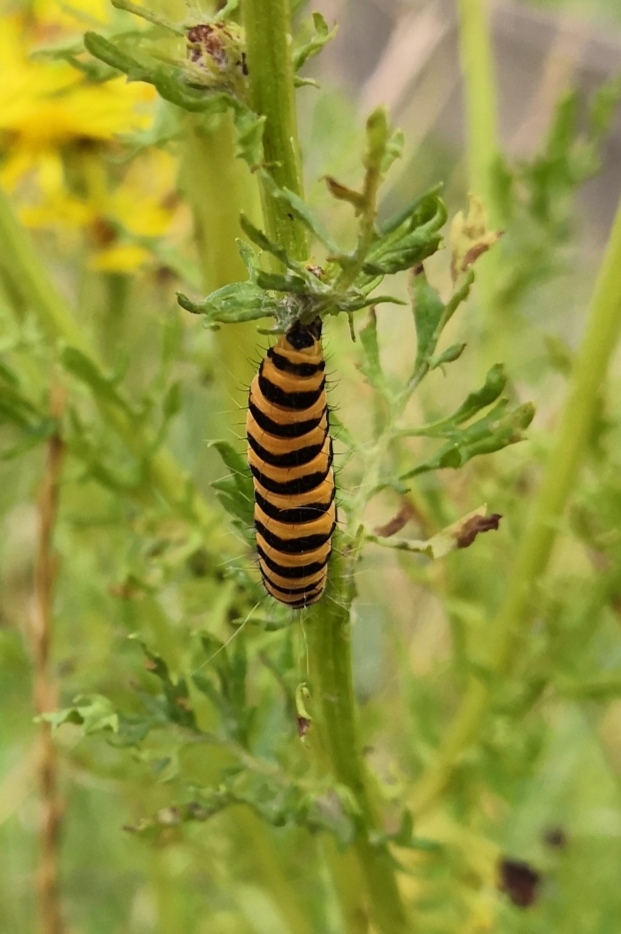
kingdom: Animalia
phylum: Arthropoda
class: Insecta
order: Lepidoptera
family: Erebidae
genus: Tyria
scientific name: Tyria jacobaeae
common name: Cinnabar
